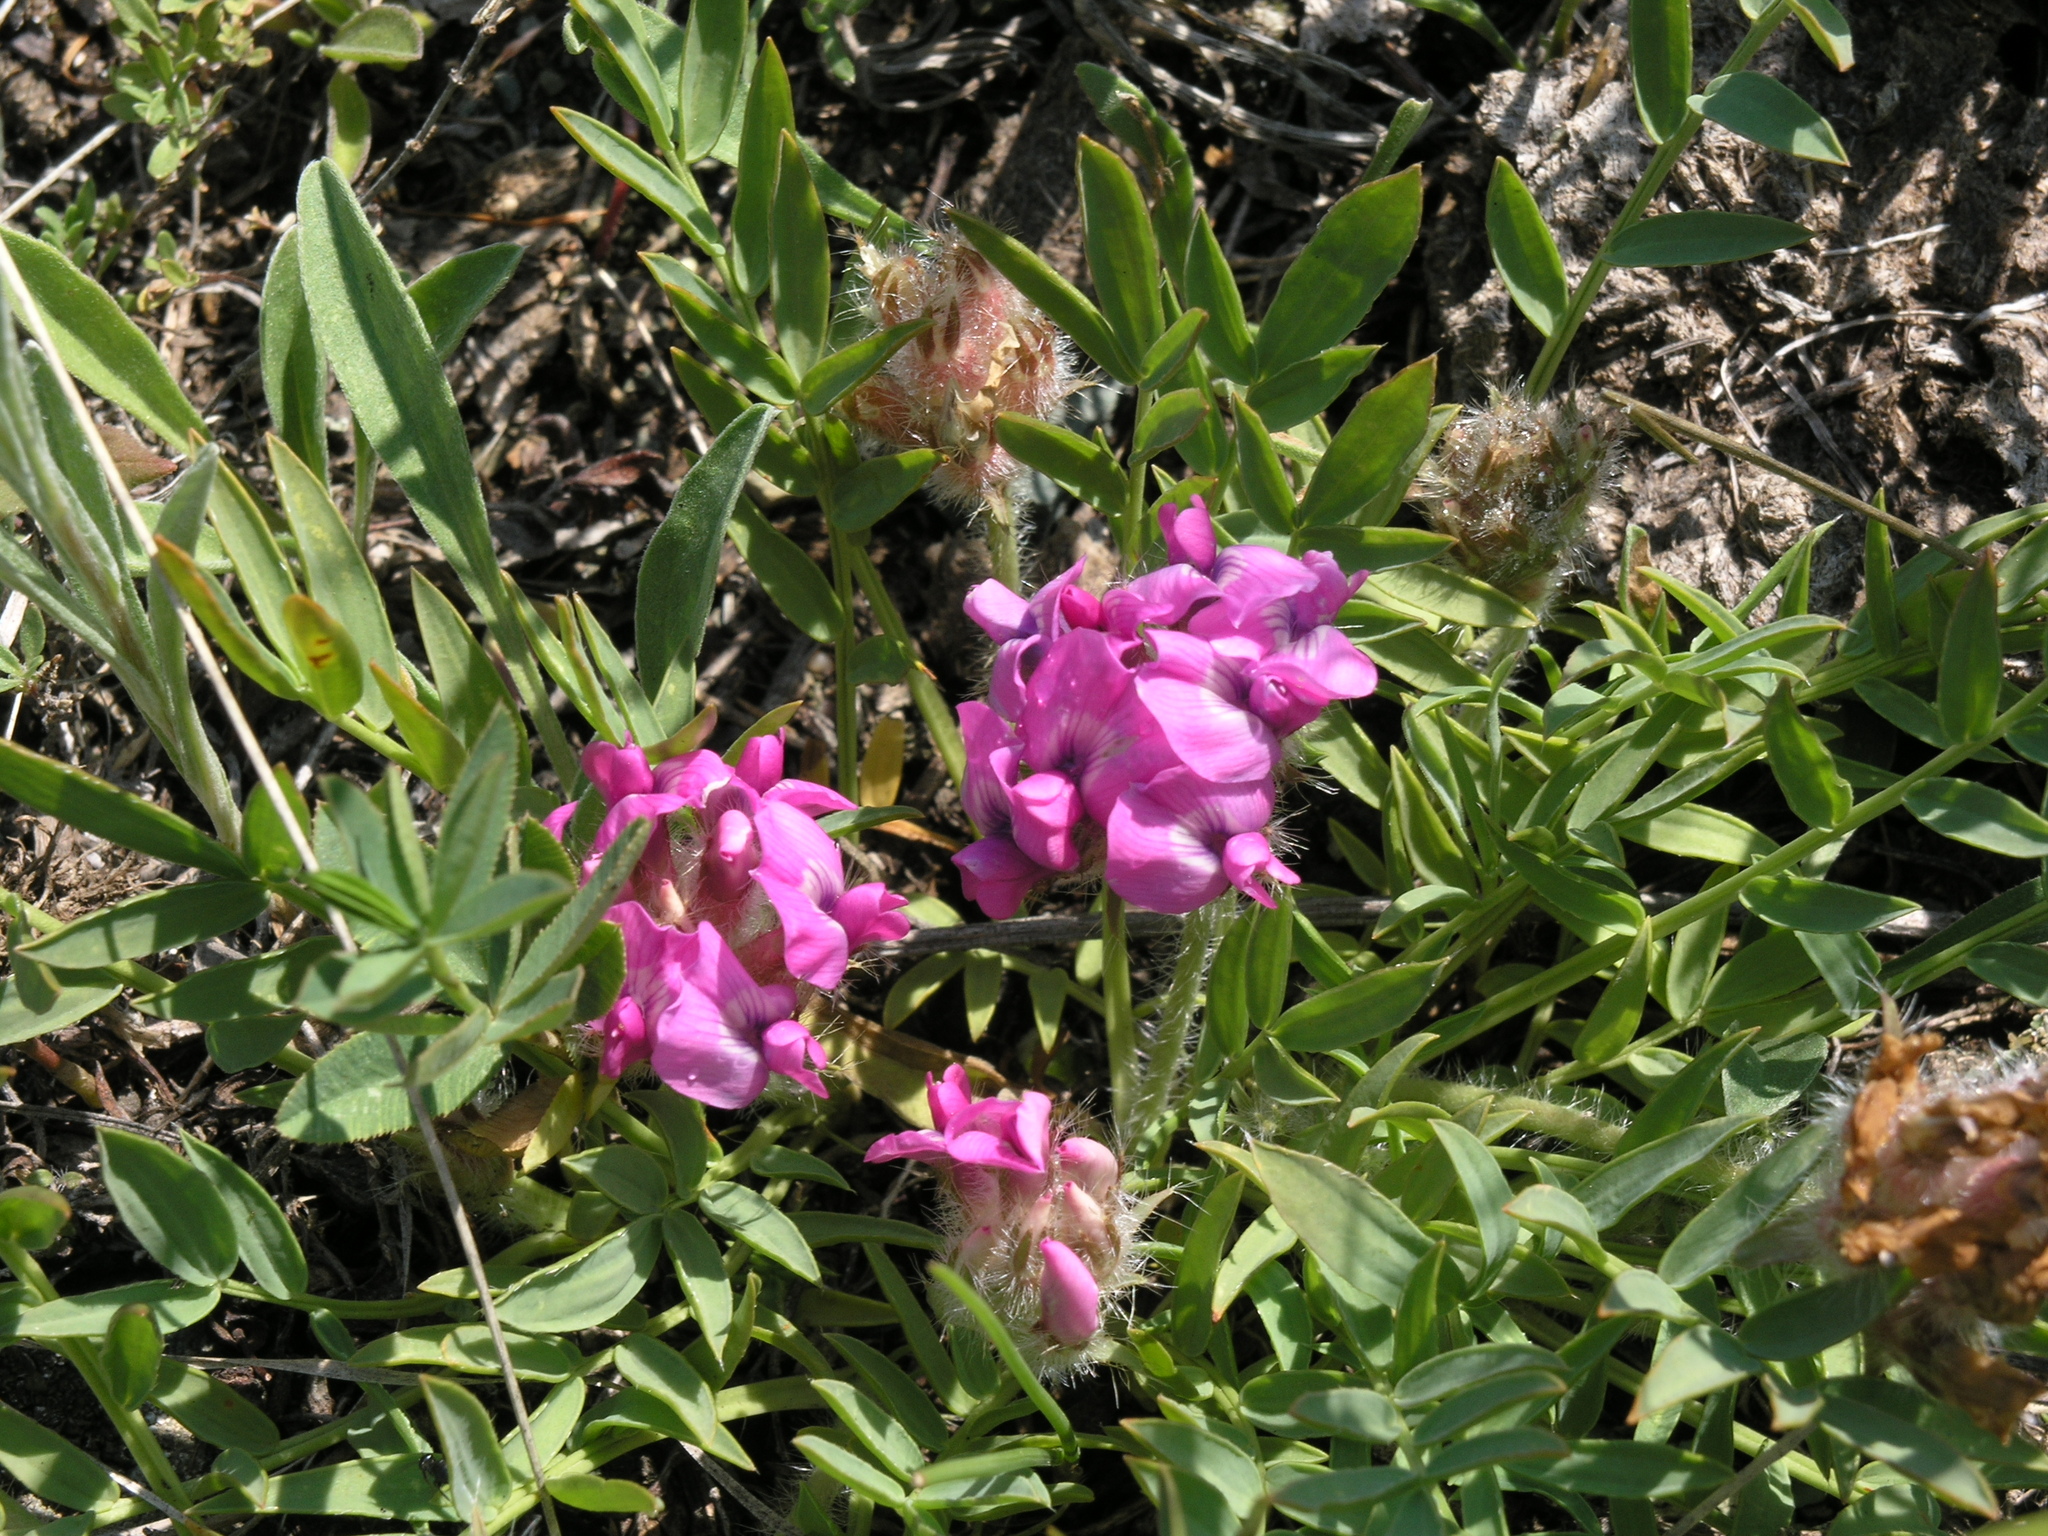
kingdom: Plantae
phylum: Tracheophyta
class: Magnoliopsida
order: Fabales
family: Fabaceae
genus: Oxytropis
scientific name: Oxytropis setosa
